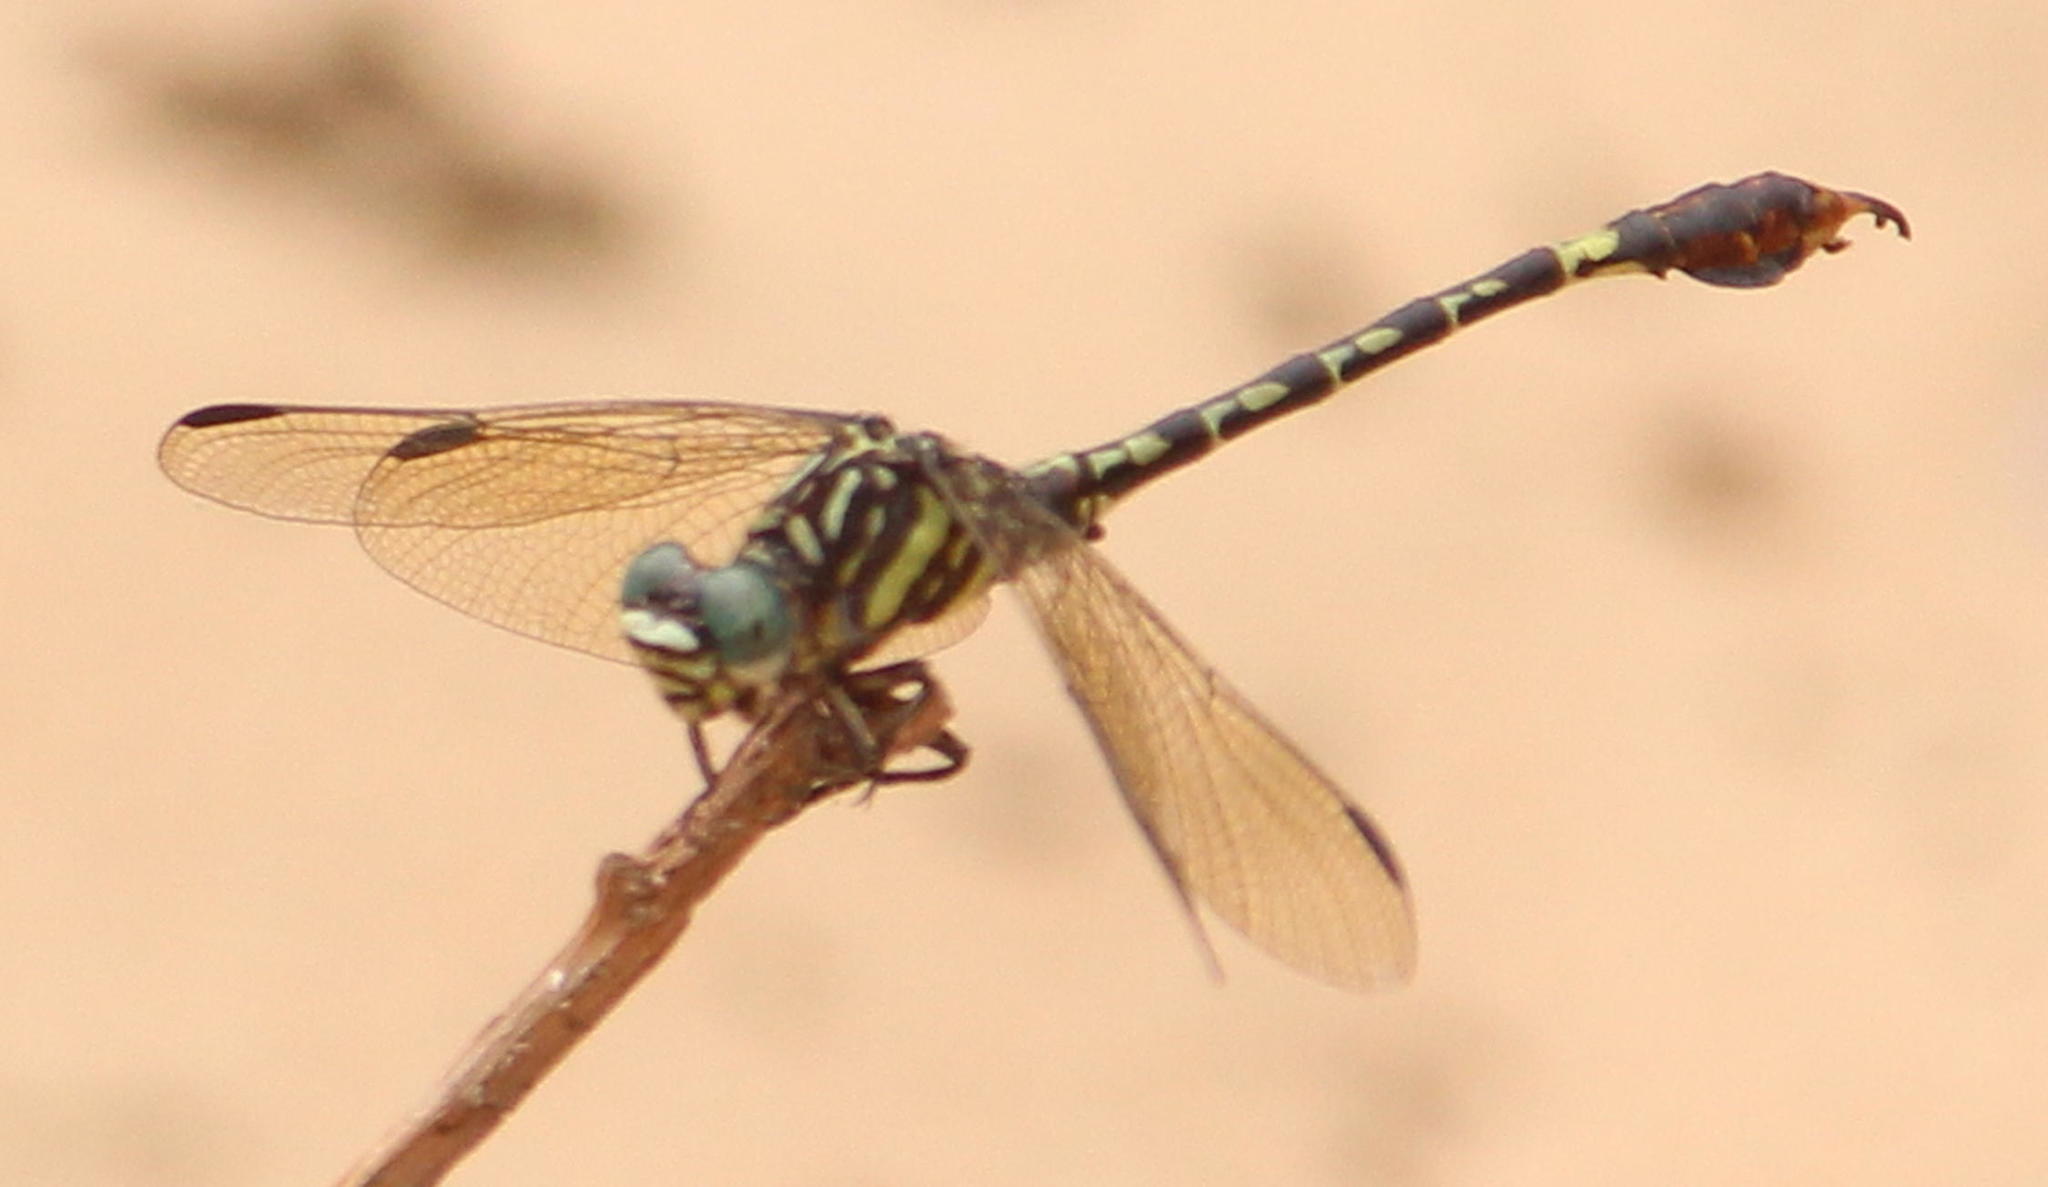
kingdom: Animalia
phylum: Arthropoda
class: Insecta
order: Odonata
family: Gomphidae
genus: Paragomphus
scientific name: Paragomphus cognatus
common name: Boulder hooktail
